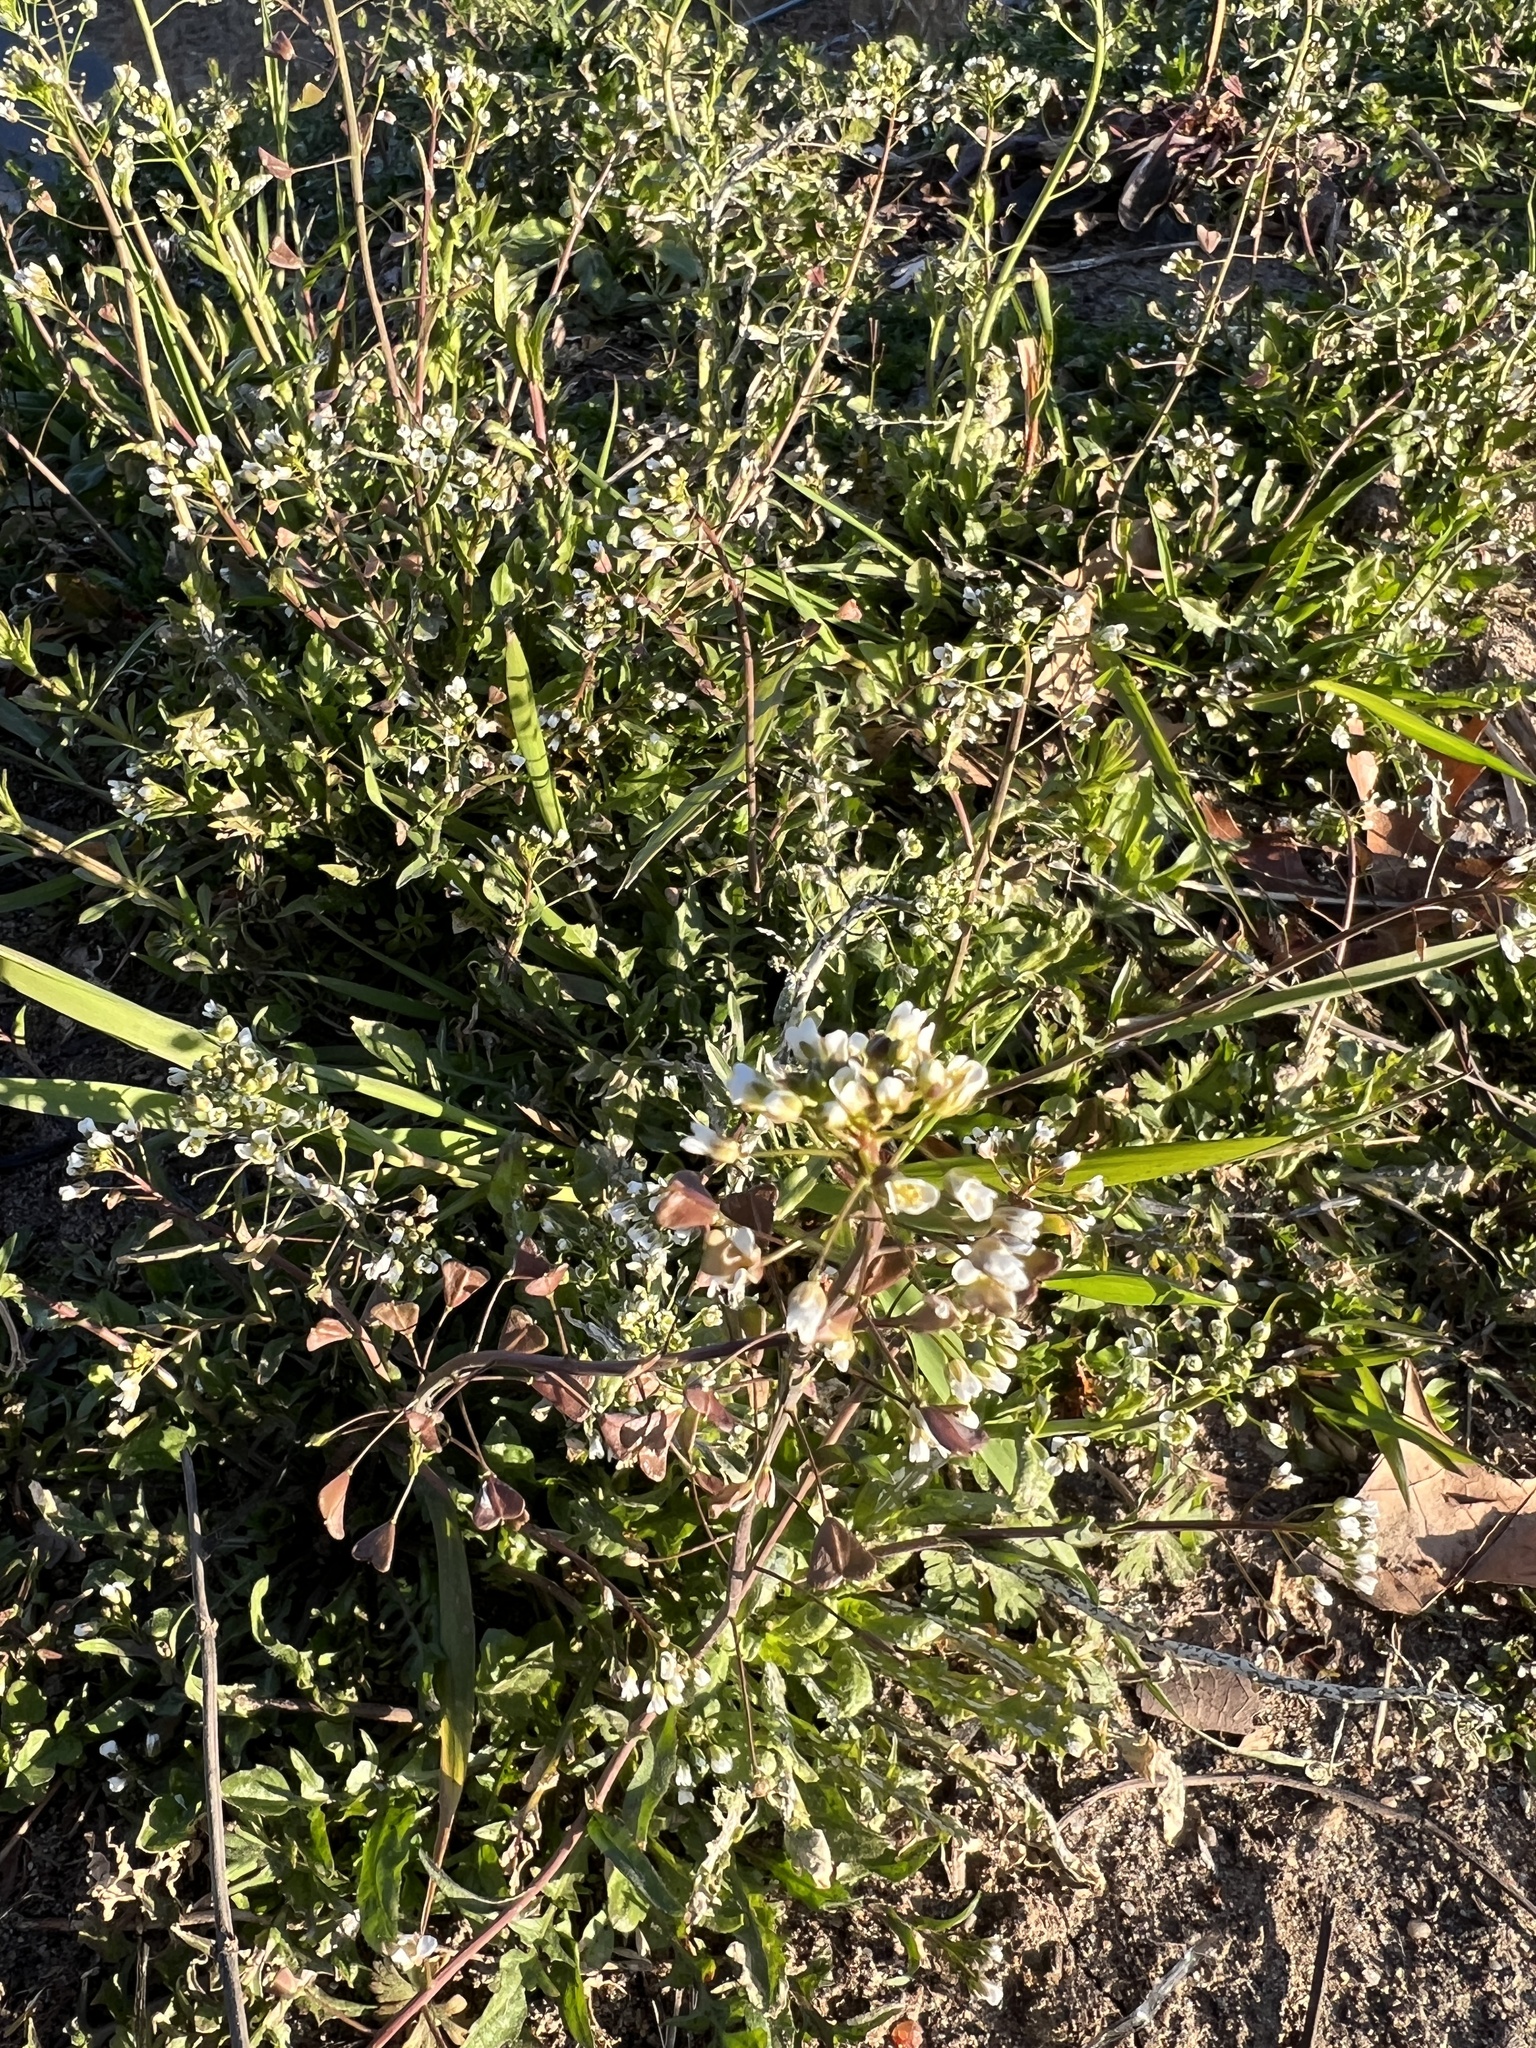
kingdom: Plantae
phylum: Tracheophyta
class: Magnoliopsida
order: Brassicales
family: Brassicaceae
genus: Capsella
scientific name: Capsella bursa-pastoris
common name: Shepherd's purse
